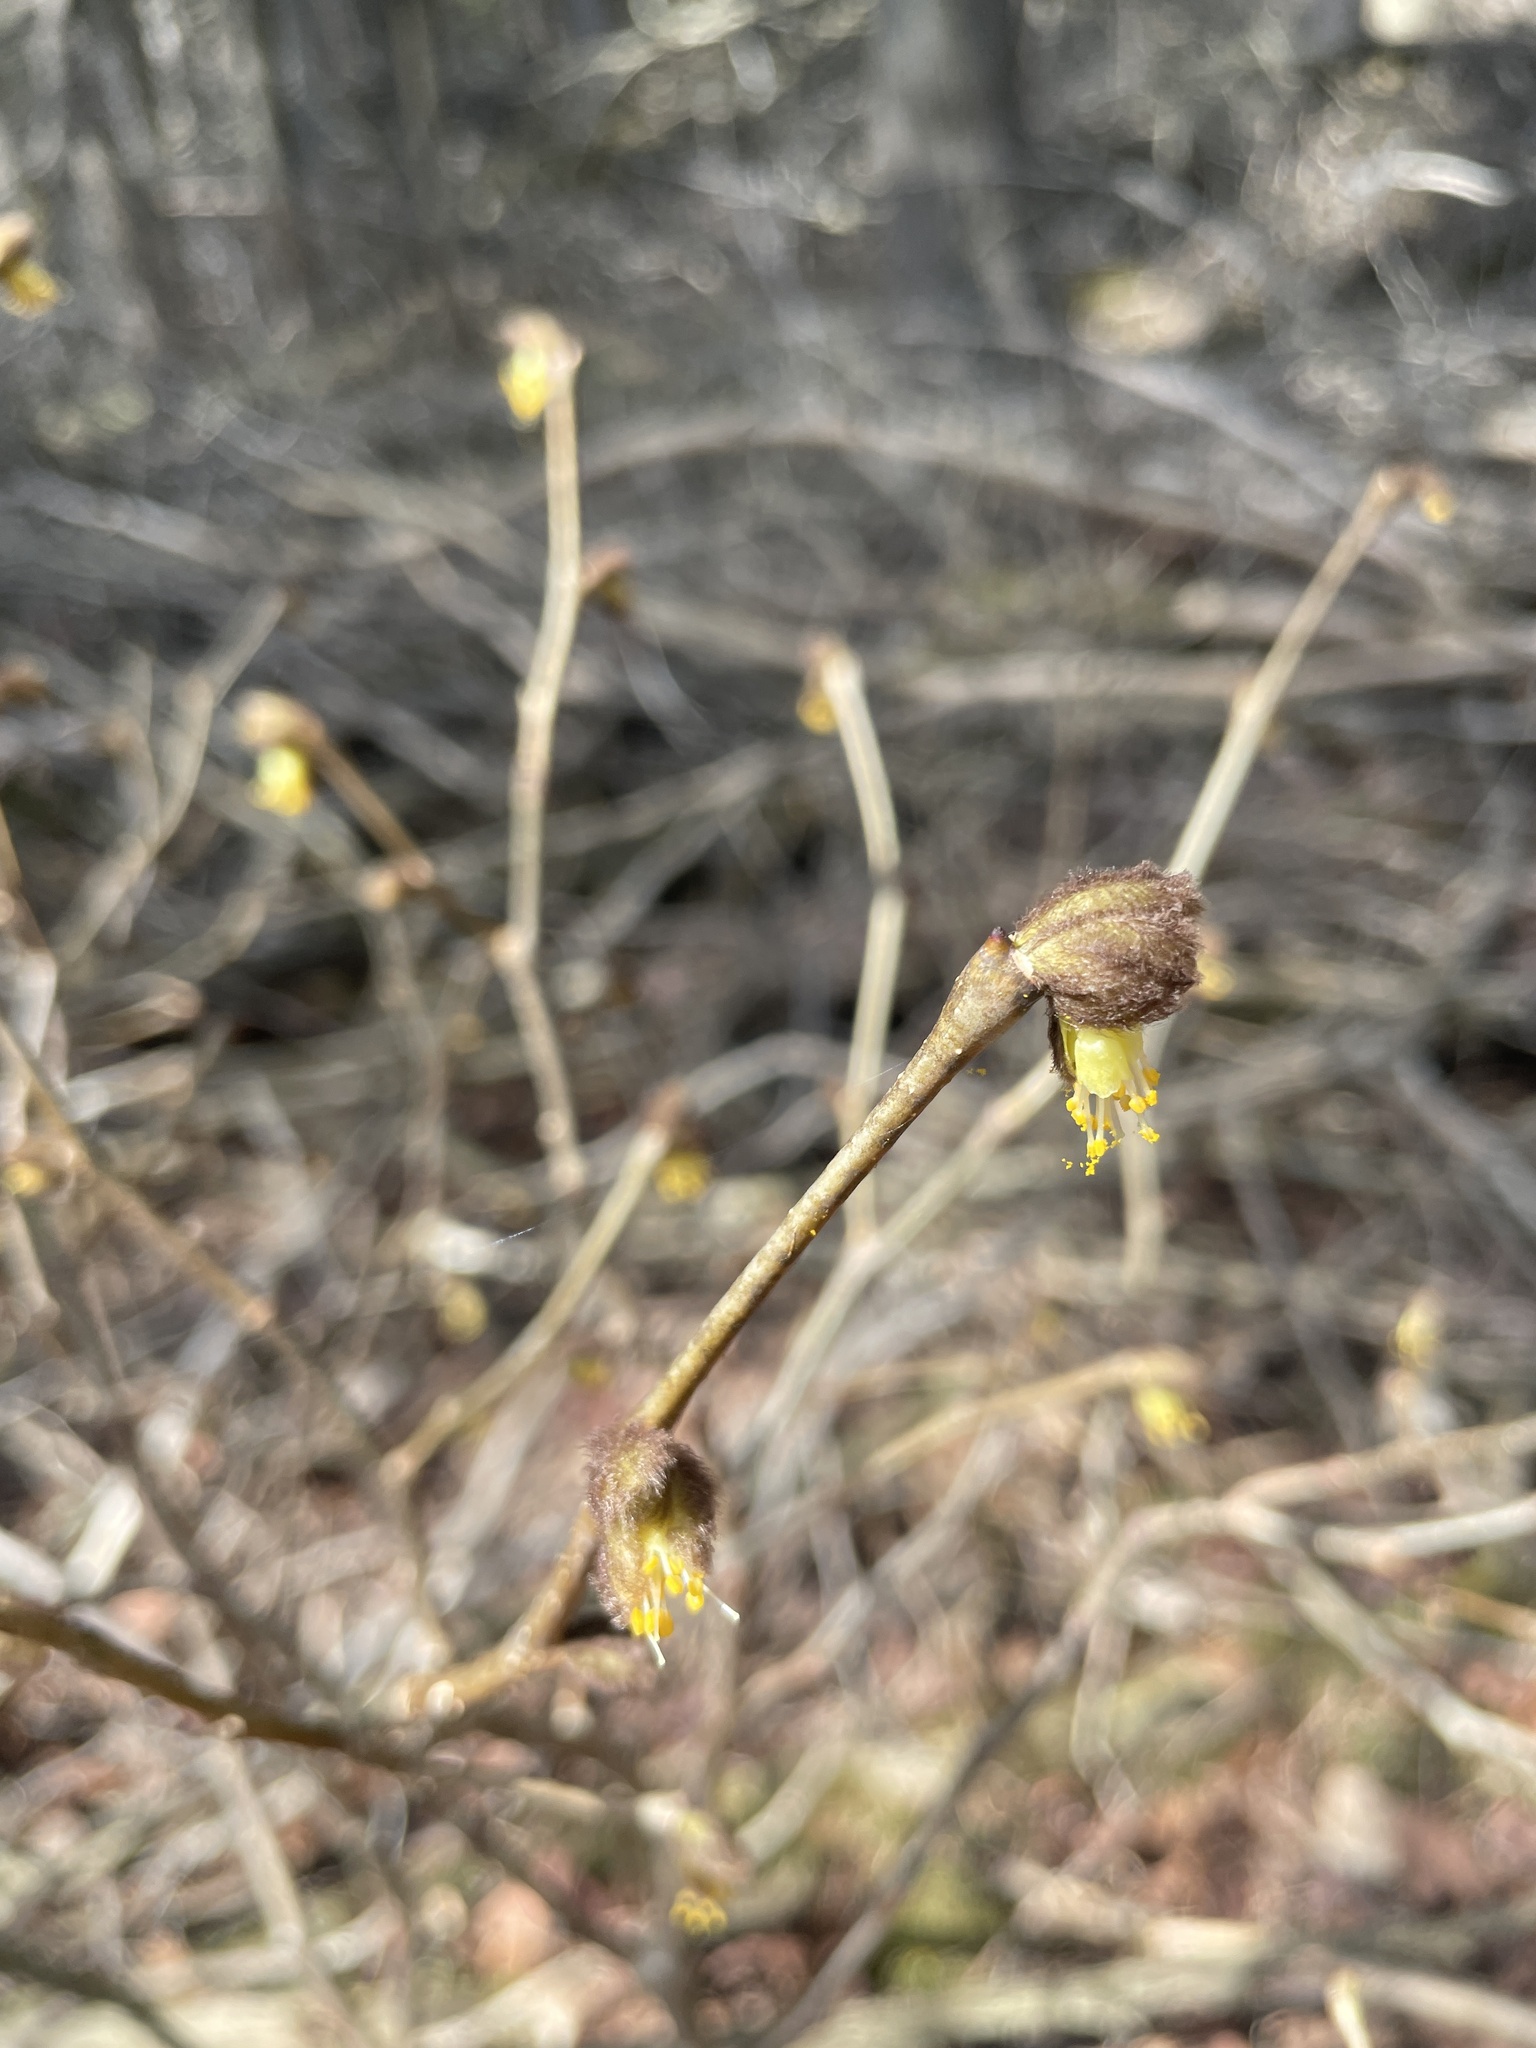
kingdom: Plantae
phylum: Tracheophyta
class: Magnoliopsida
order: Malvales
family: Thymelaeaceae
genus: Dirca
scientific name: Dirca palustris
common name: Leatherwood
